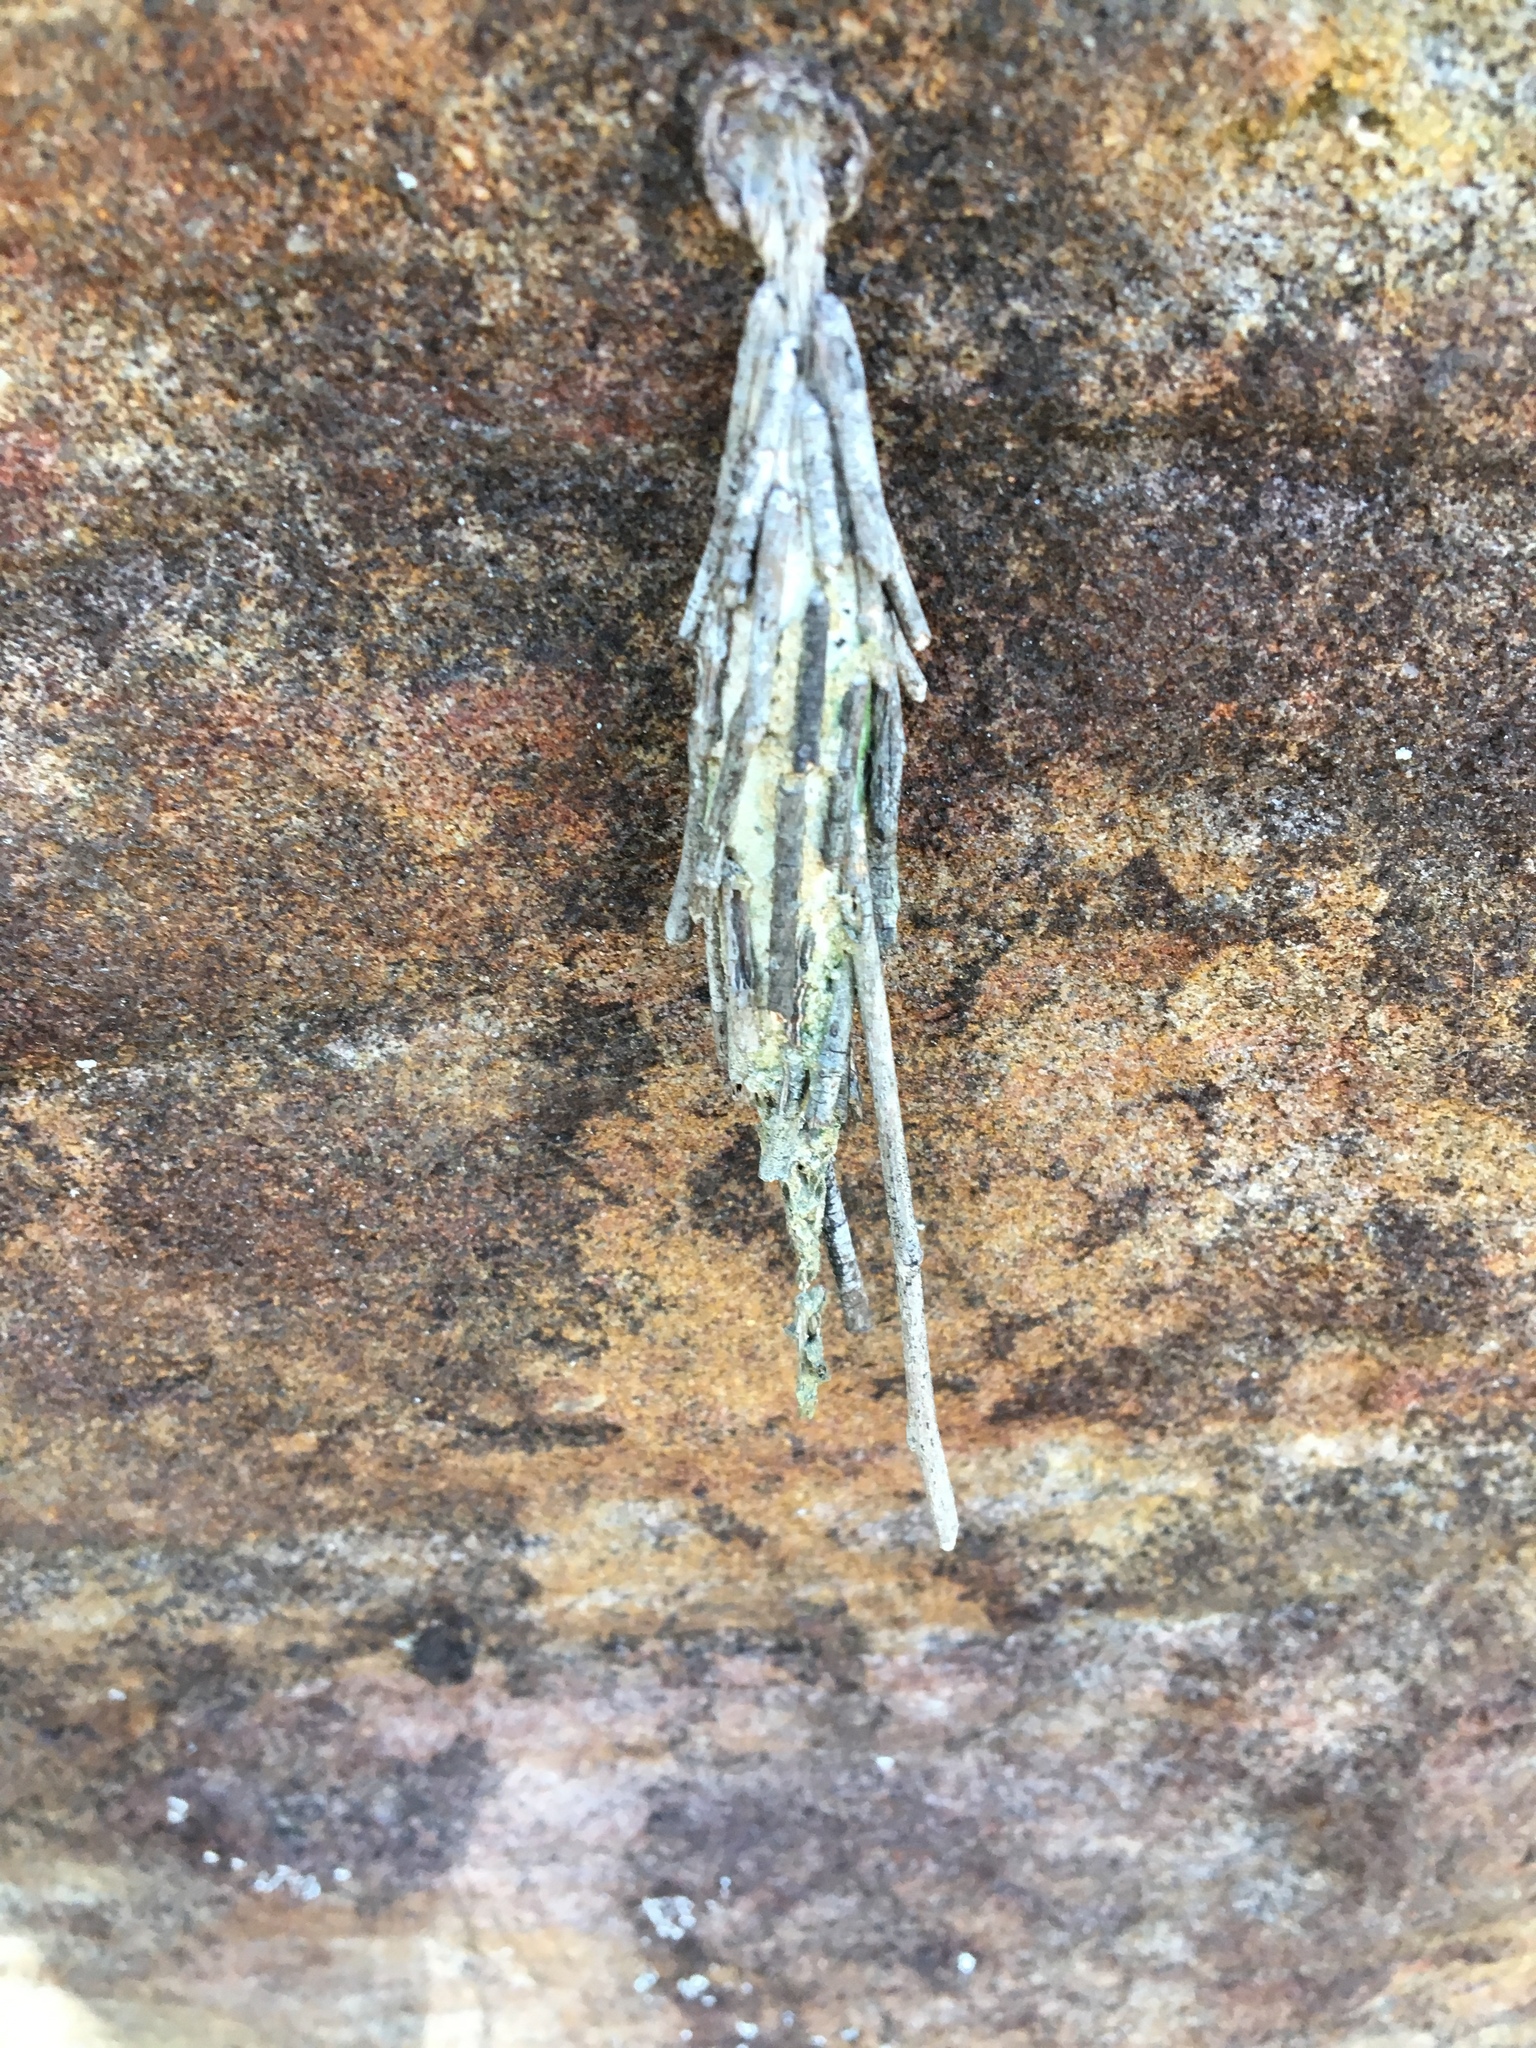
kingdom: Animalia
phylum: Arthropoda
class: Insecta
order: Lepidoptera
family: Psychidae
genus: Metura
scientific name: Metura elongatus
